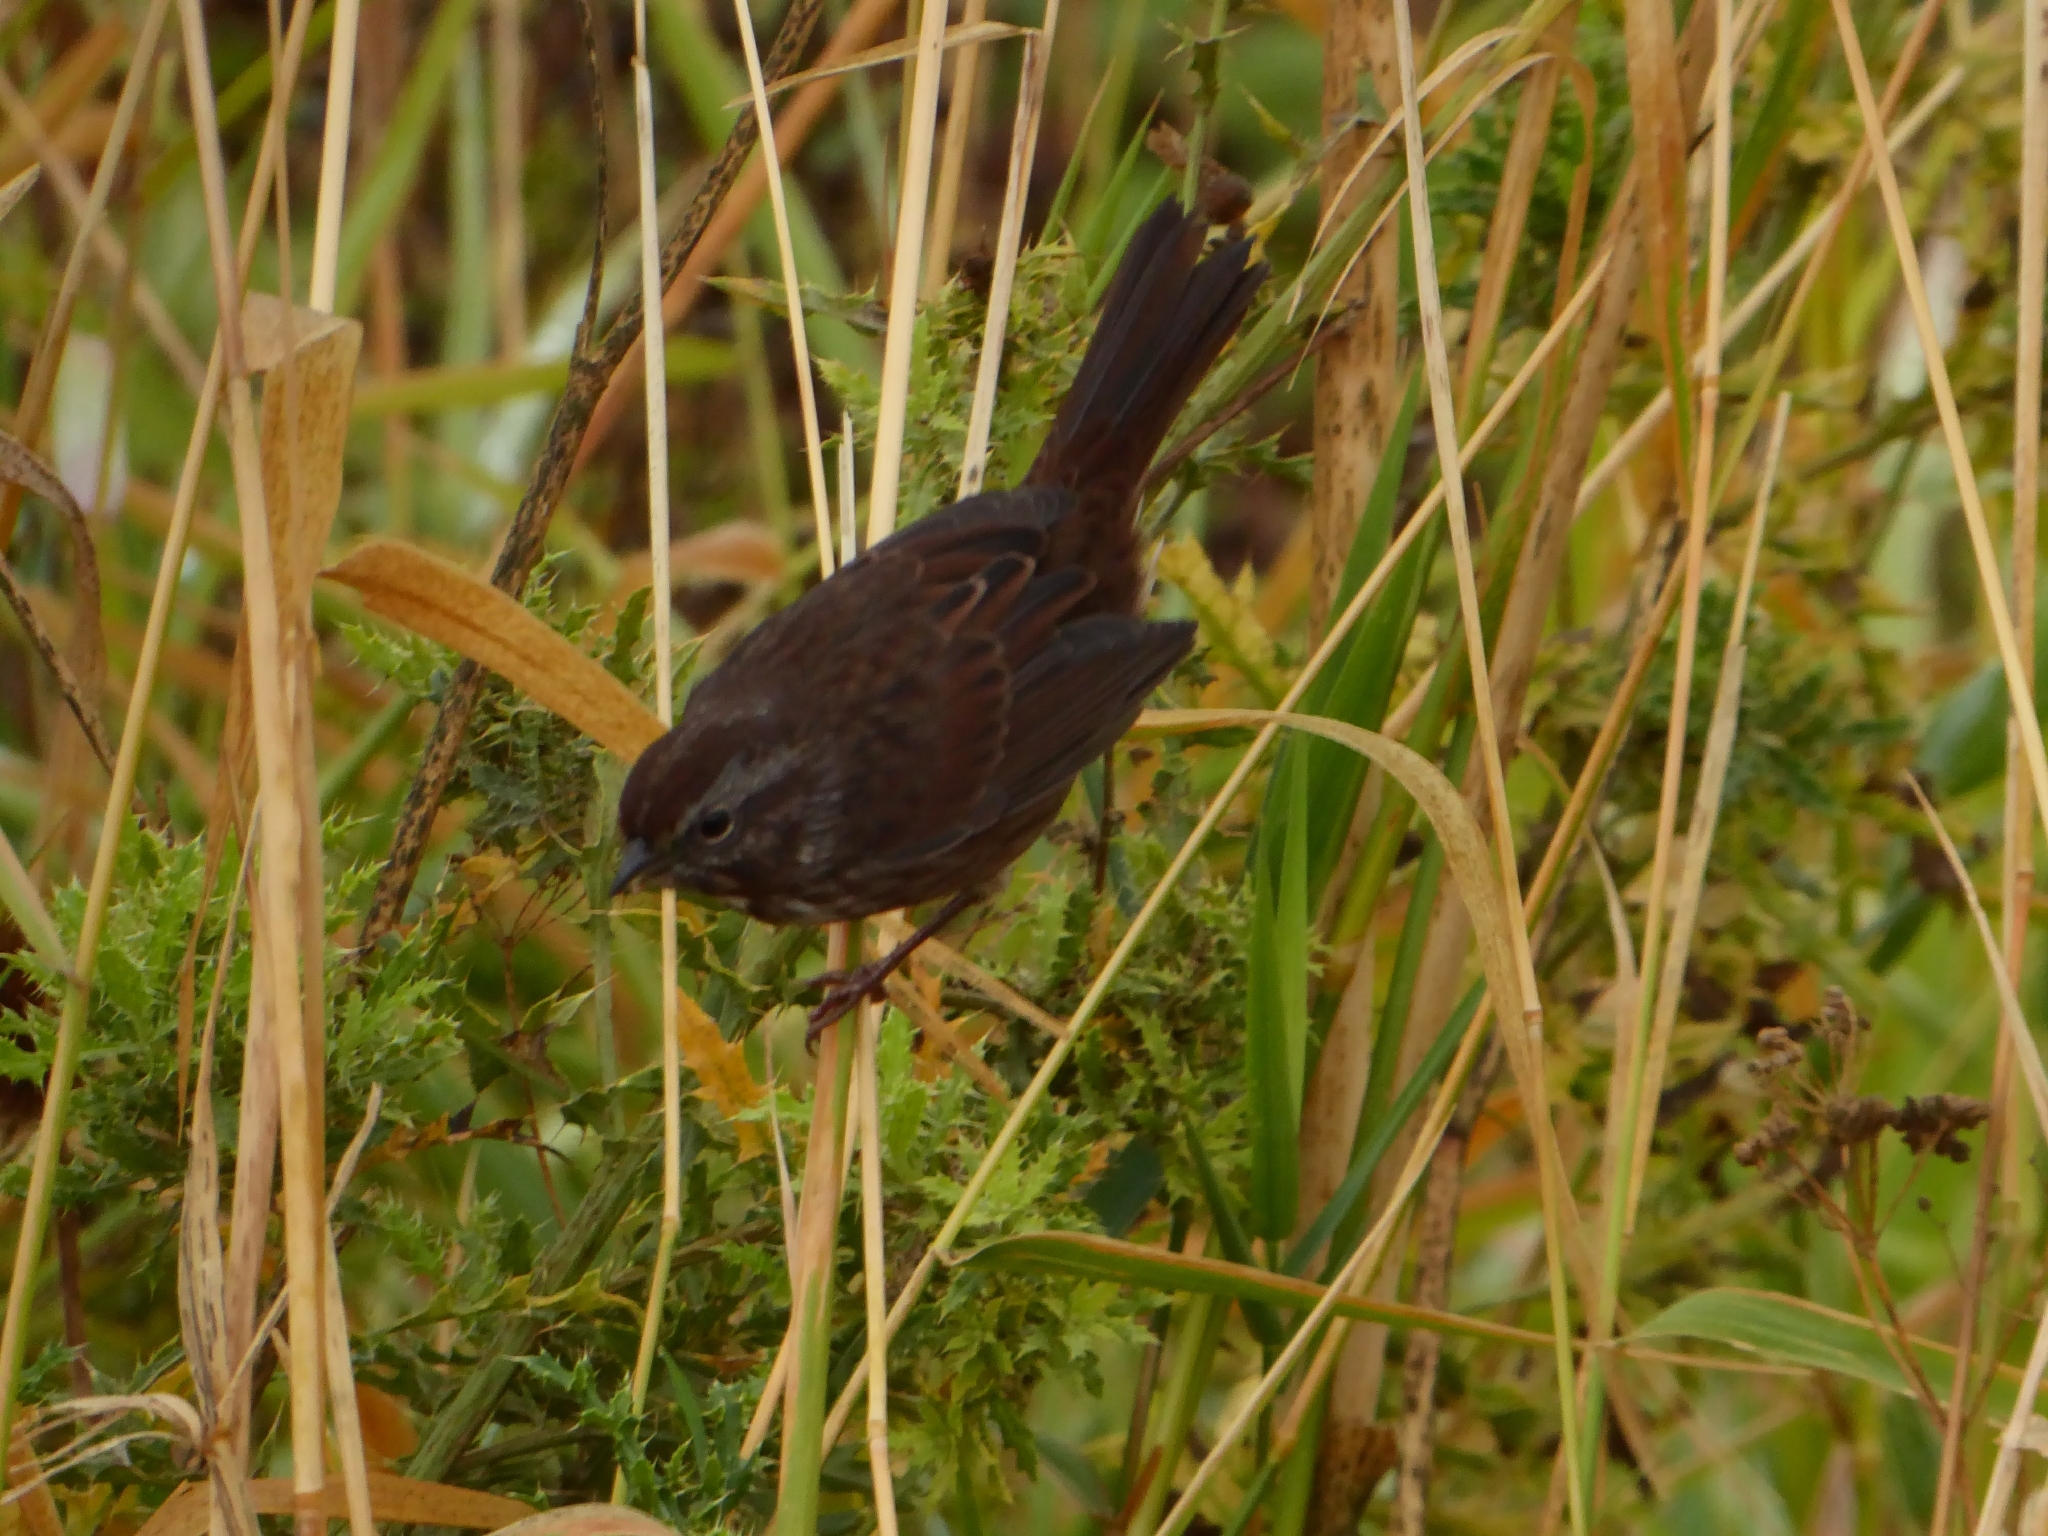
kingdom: Animalia
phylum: Chordata
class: Aves
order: Passeriformes
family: Passerellidae
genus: Melospiza
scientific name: Melospiza melodia
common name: Song sparrow
